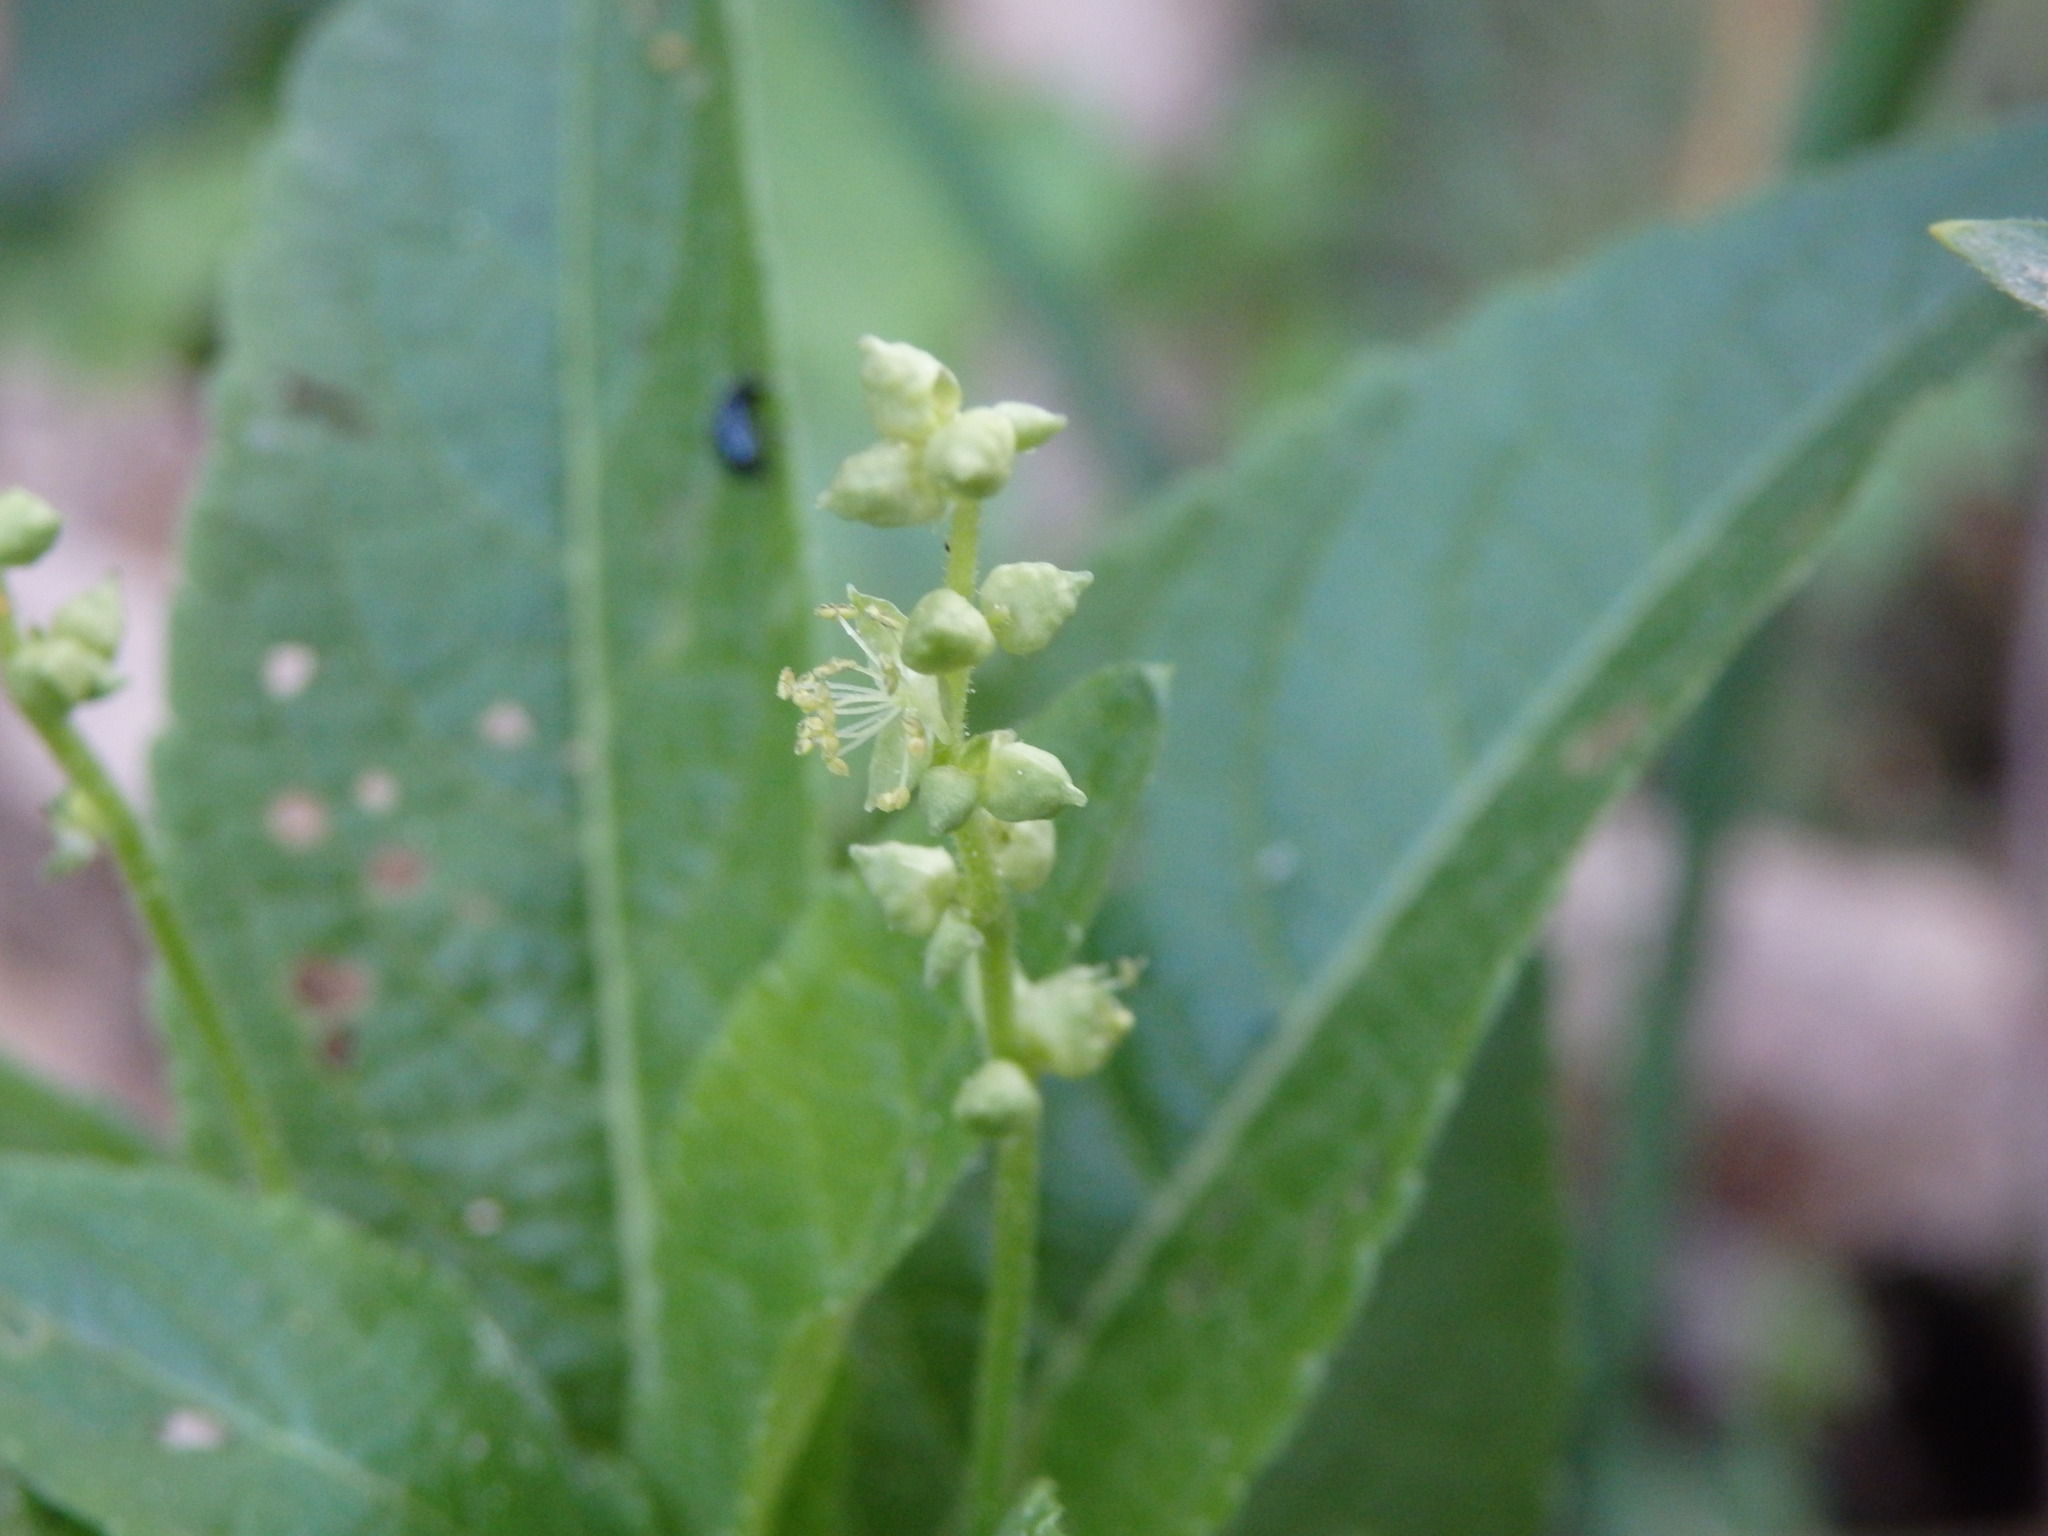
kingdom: Plantae
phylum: Tracheophyta
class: Magnoliopsida
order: Malpighiales
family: Euphorbiaceae
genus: Mercurialis
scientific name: Mercurialis perennis
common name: Dog mercury
